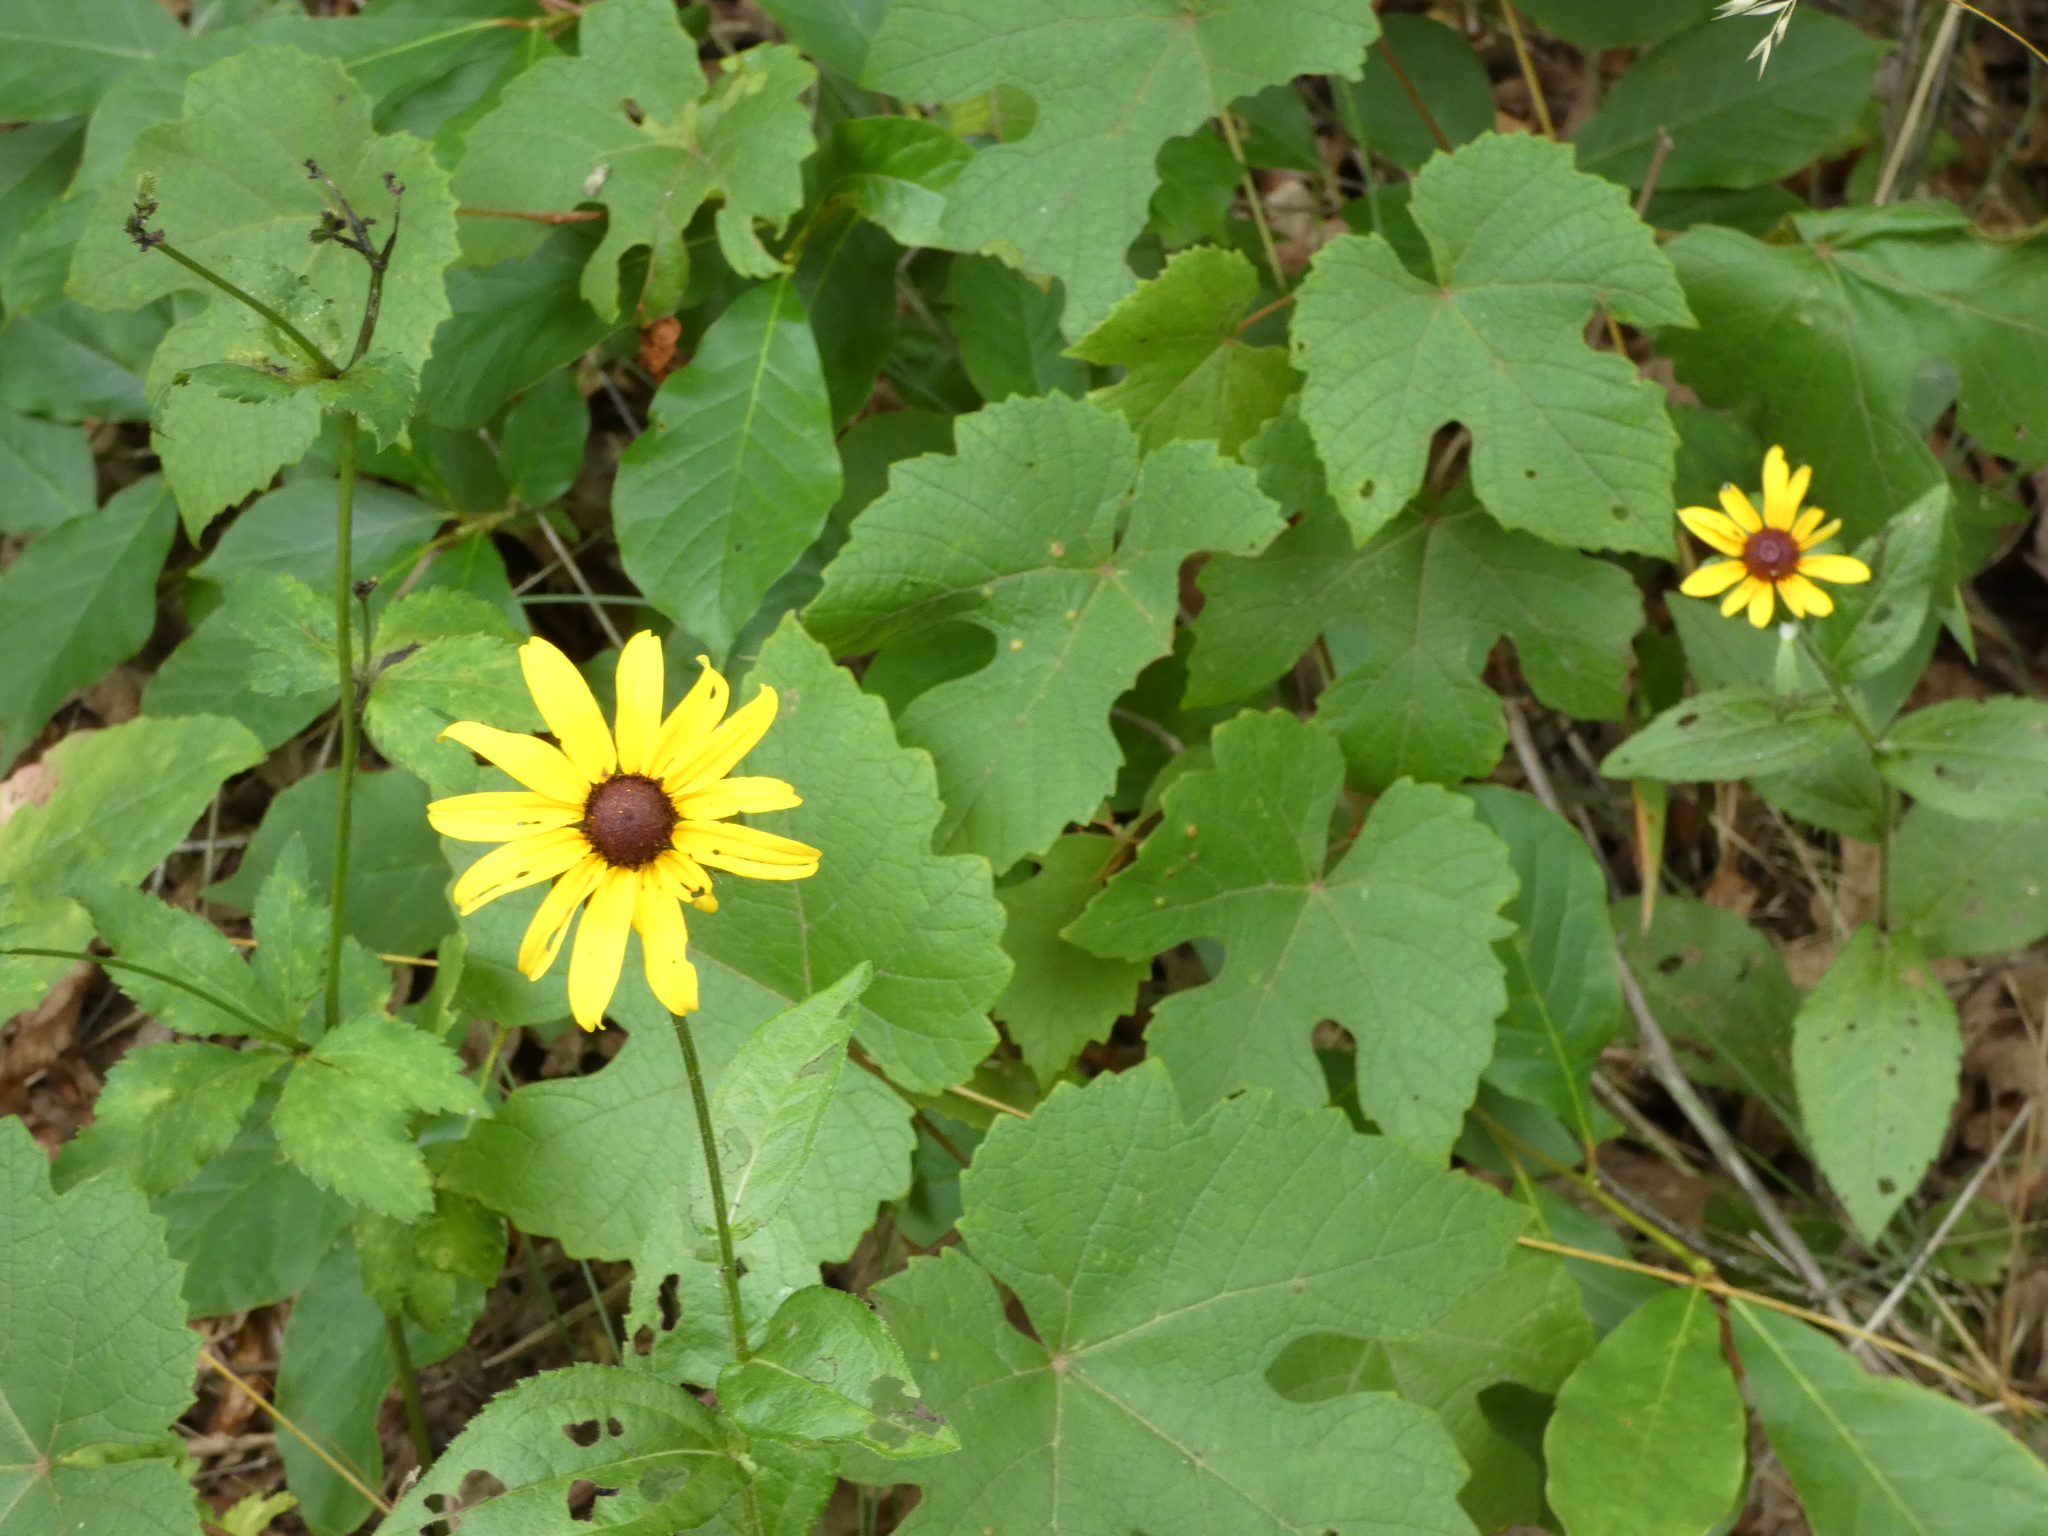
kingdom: Plantae
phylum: Tracheophyta
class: Magnoliopsida
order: Asterales
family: Asteraceae
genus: Rudbeckia
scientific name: Rudbeckia hirta
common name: Black-eyed-susan
